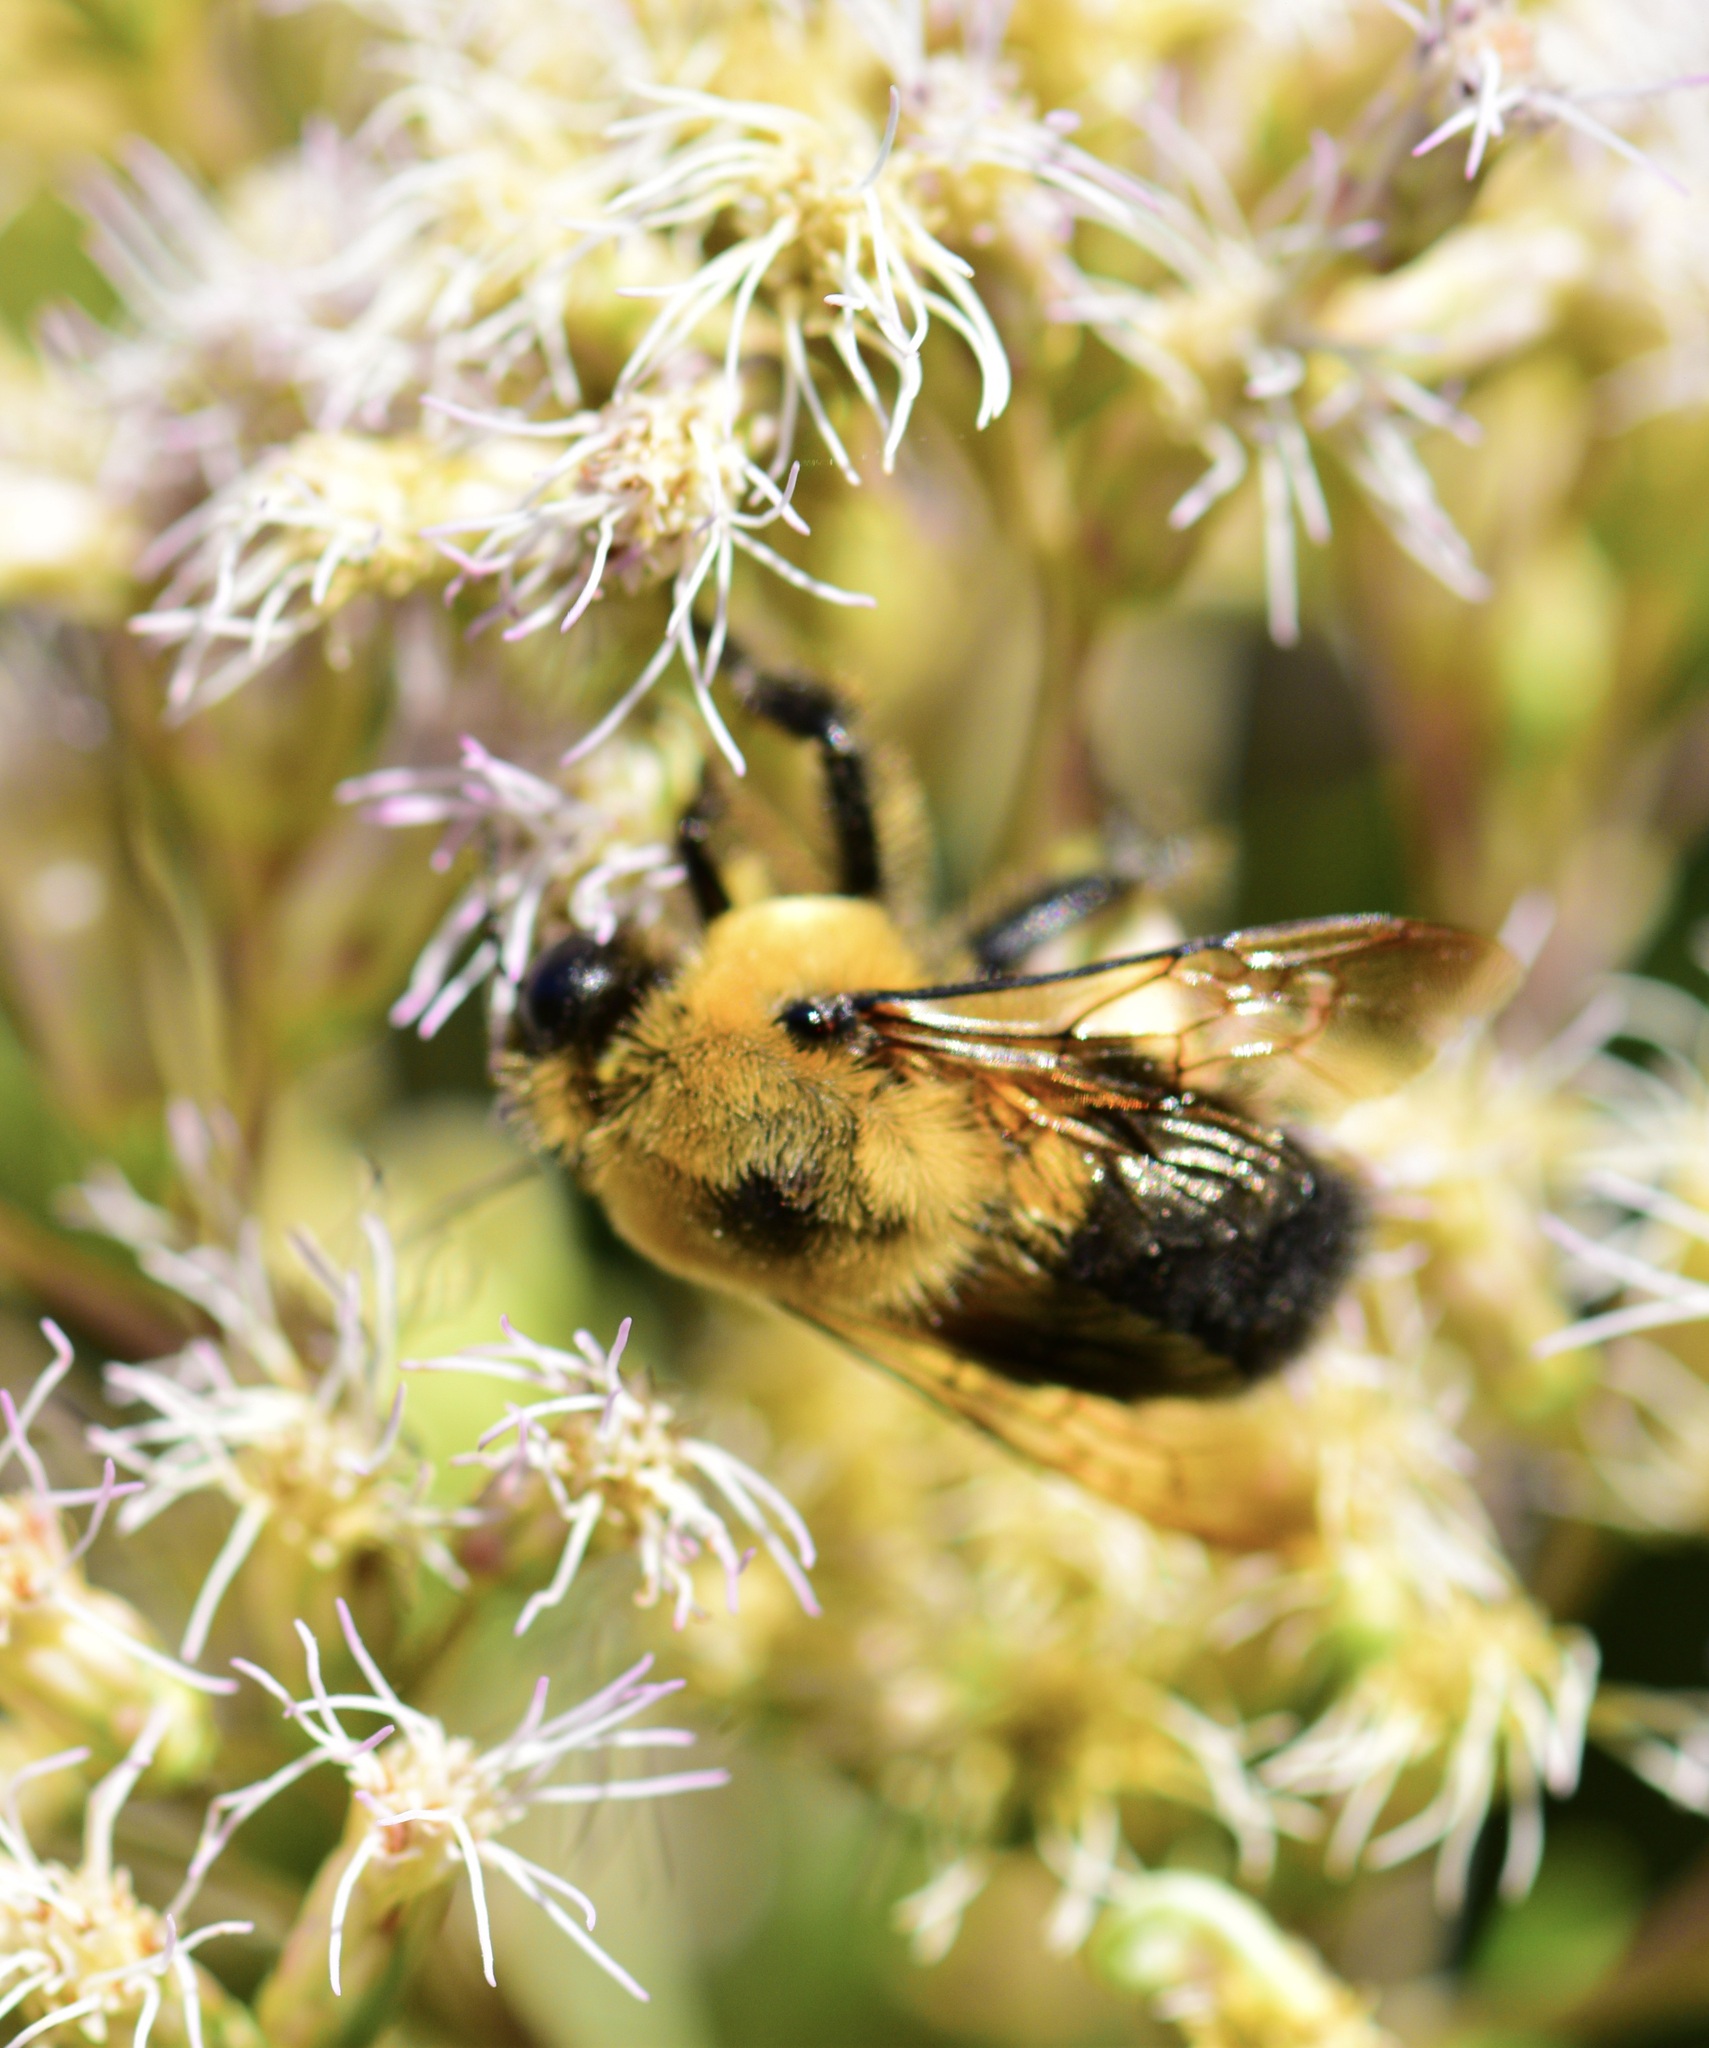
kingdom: Animalia
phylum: Arthropoda
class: Insecta
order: Hymenoptera
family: Apidae
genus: Bombus
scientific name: Bombus griseocollis
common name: Brown-belted bumble bee
